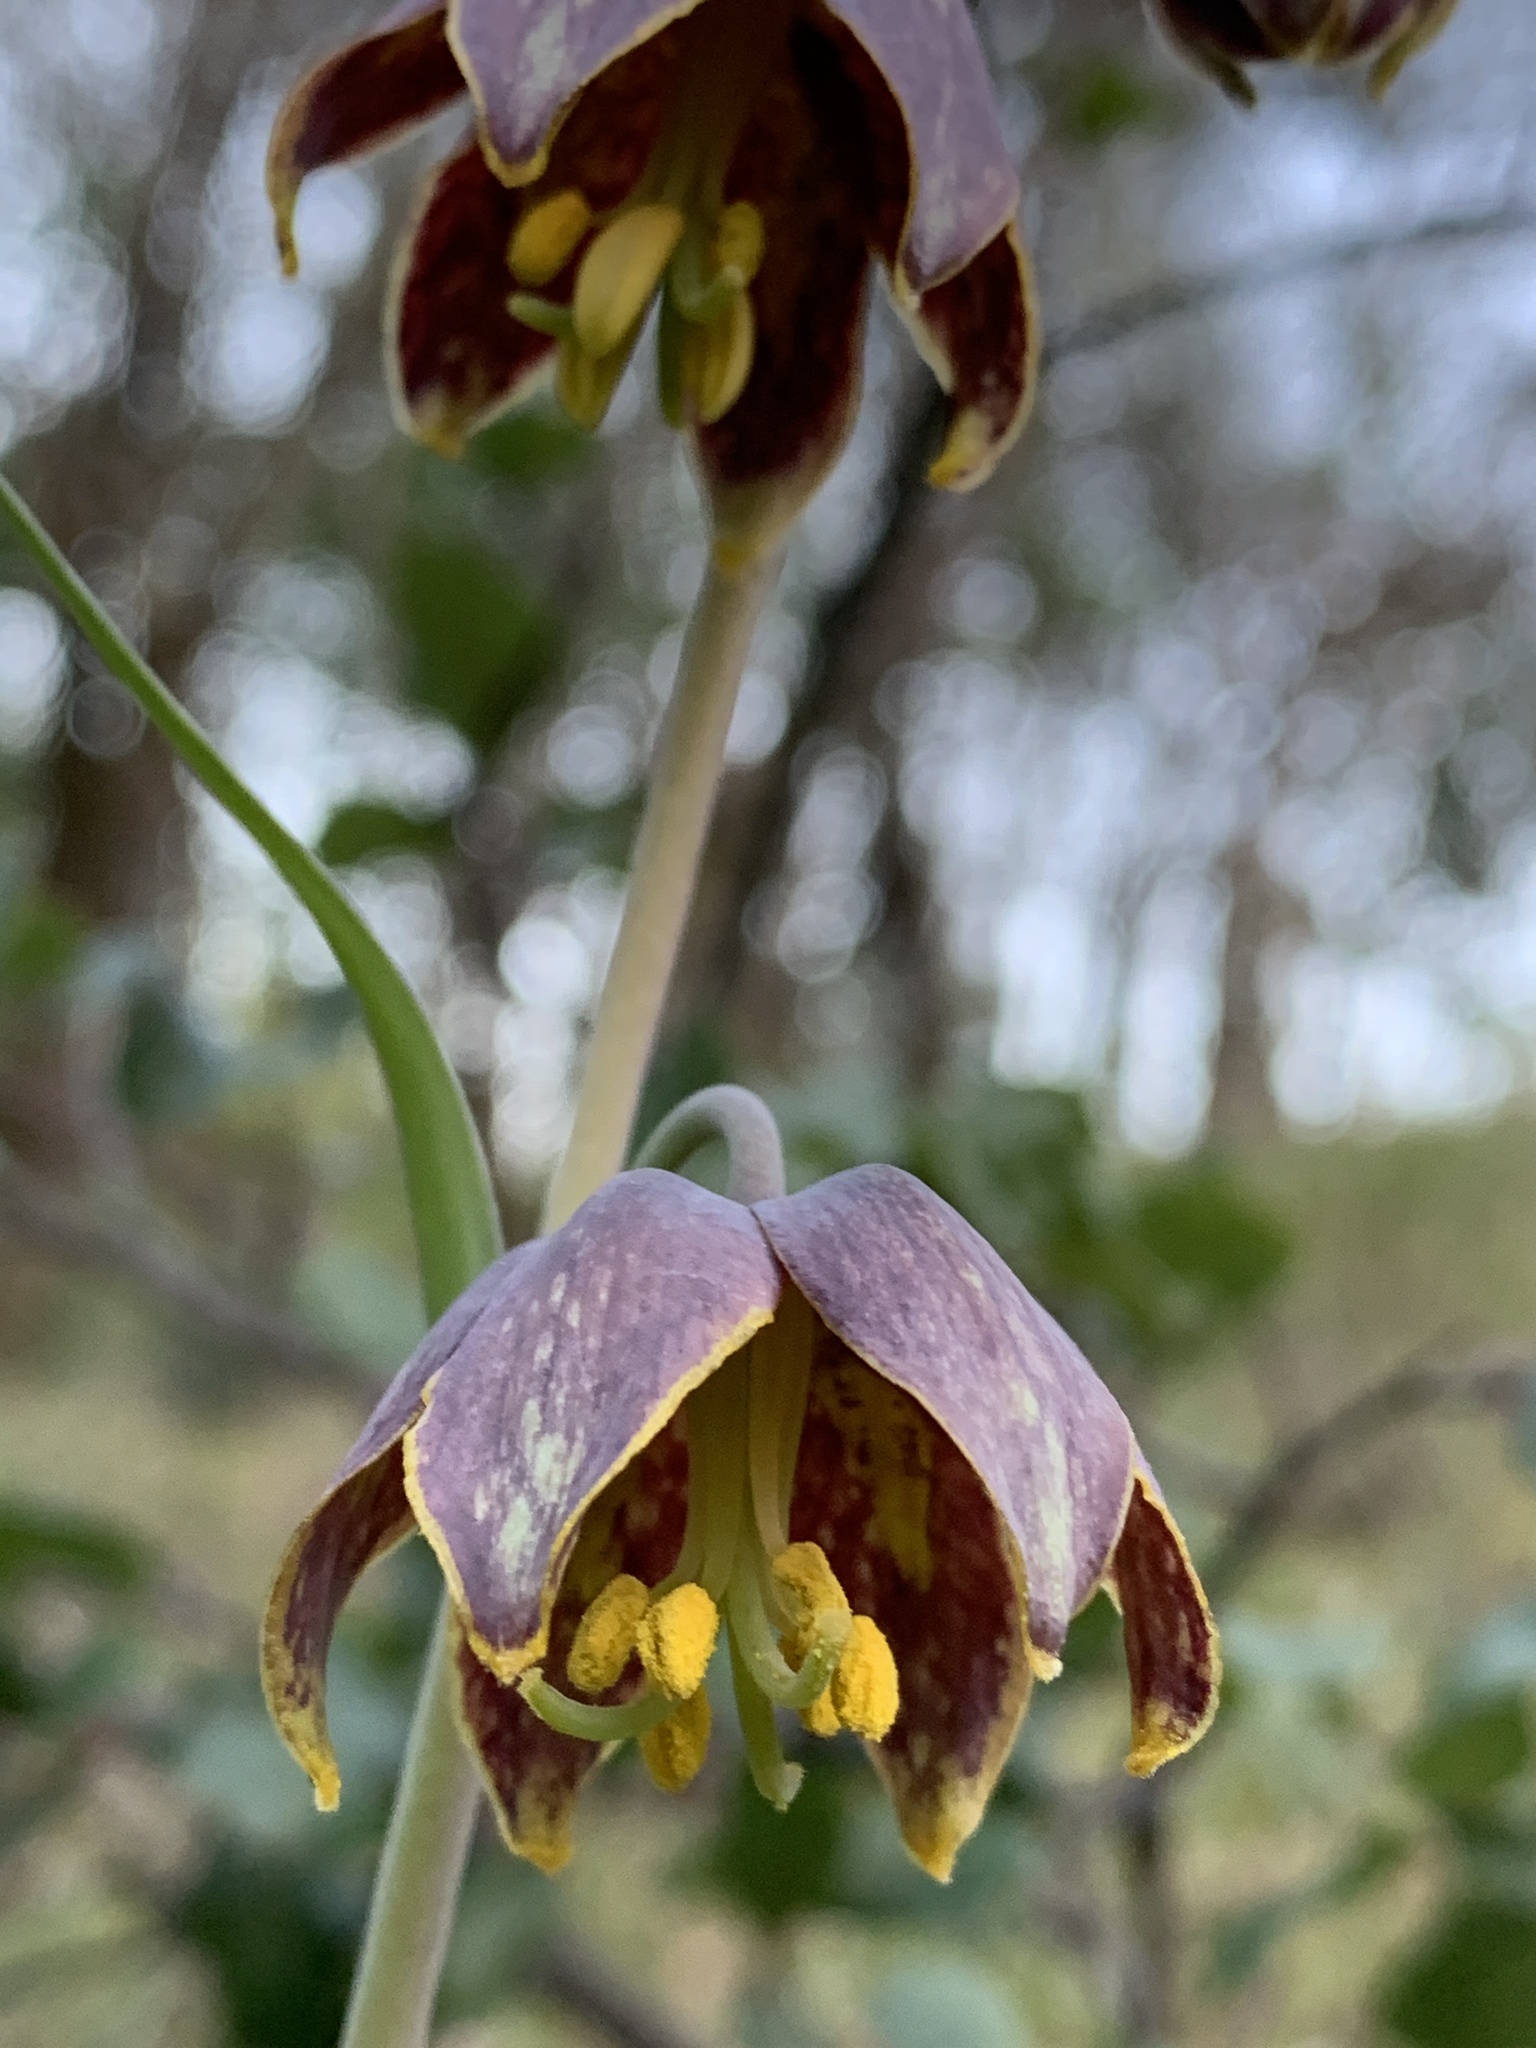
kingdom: Plantae
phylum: Tracheophyta
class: Liliopsida
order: Liliales
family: Liliaceae
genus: Fritillaria
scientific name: Fritillaria affinis
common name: Ojai fritillary
